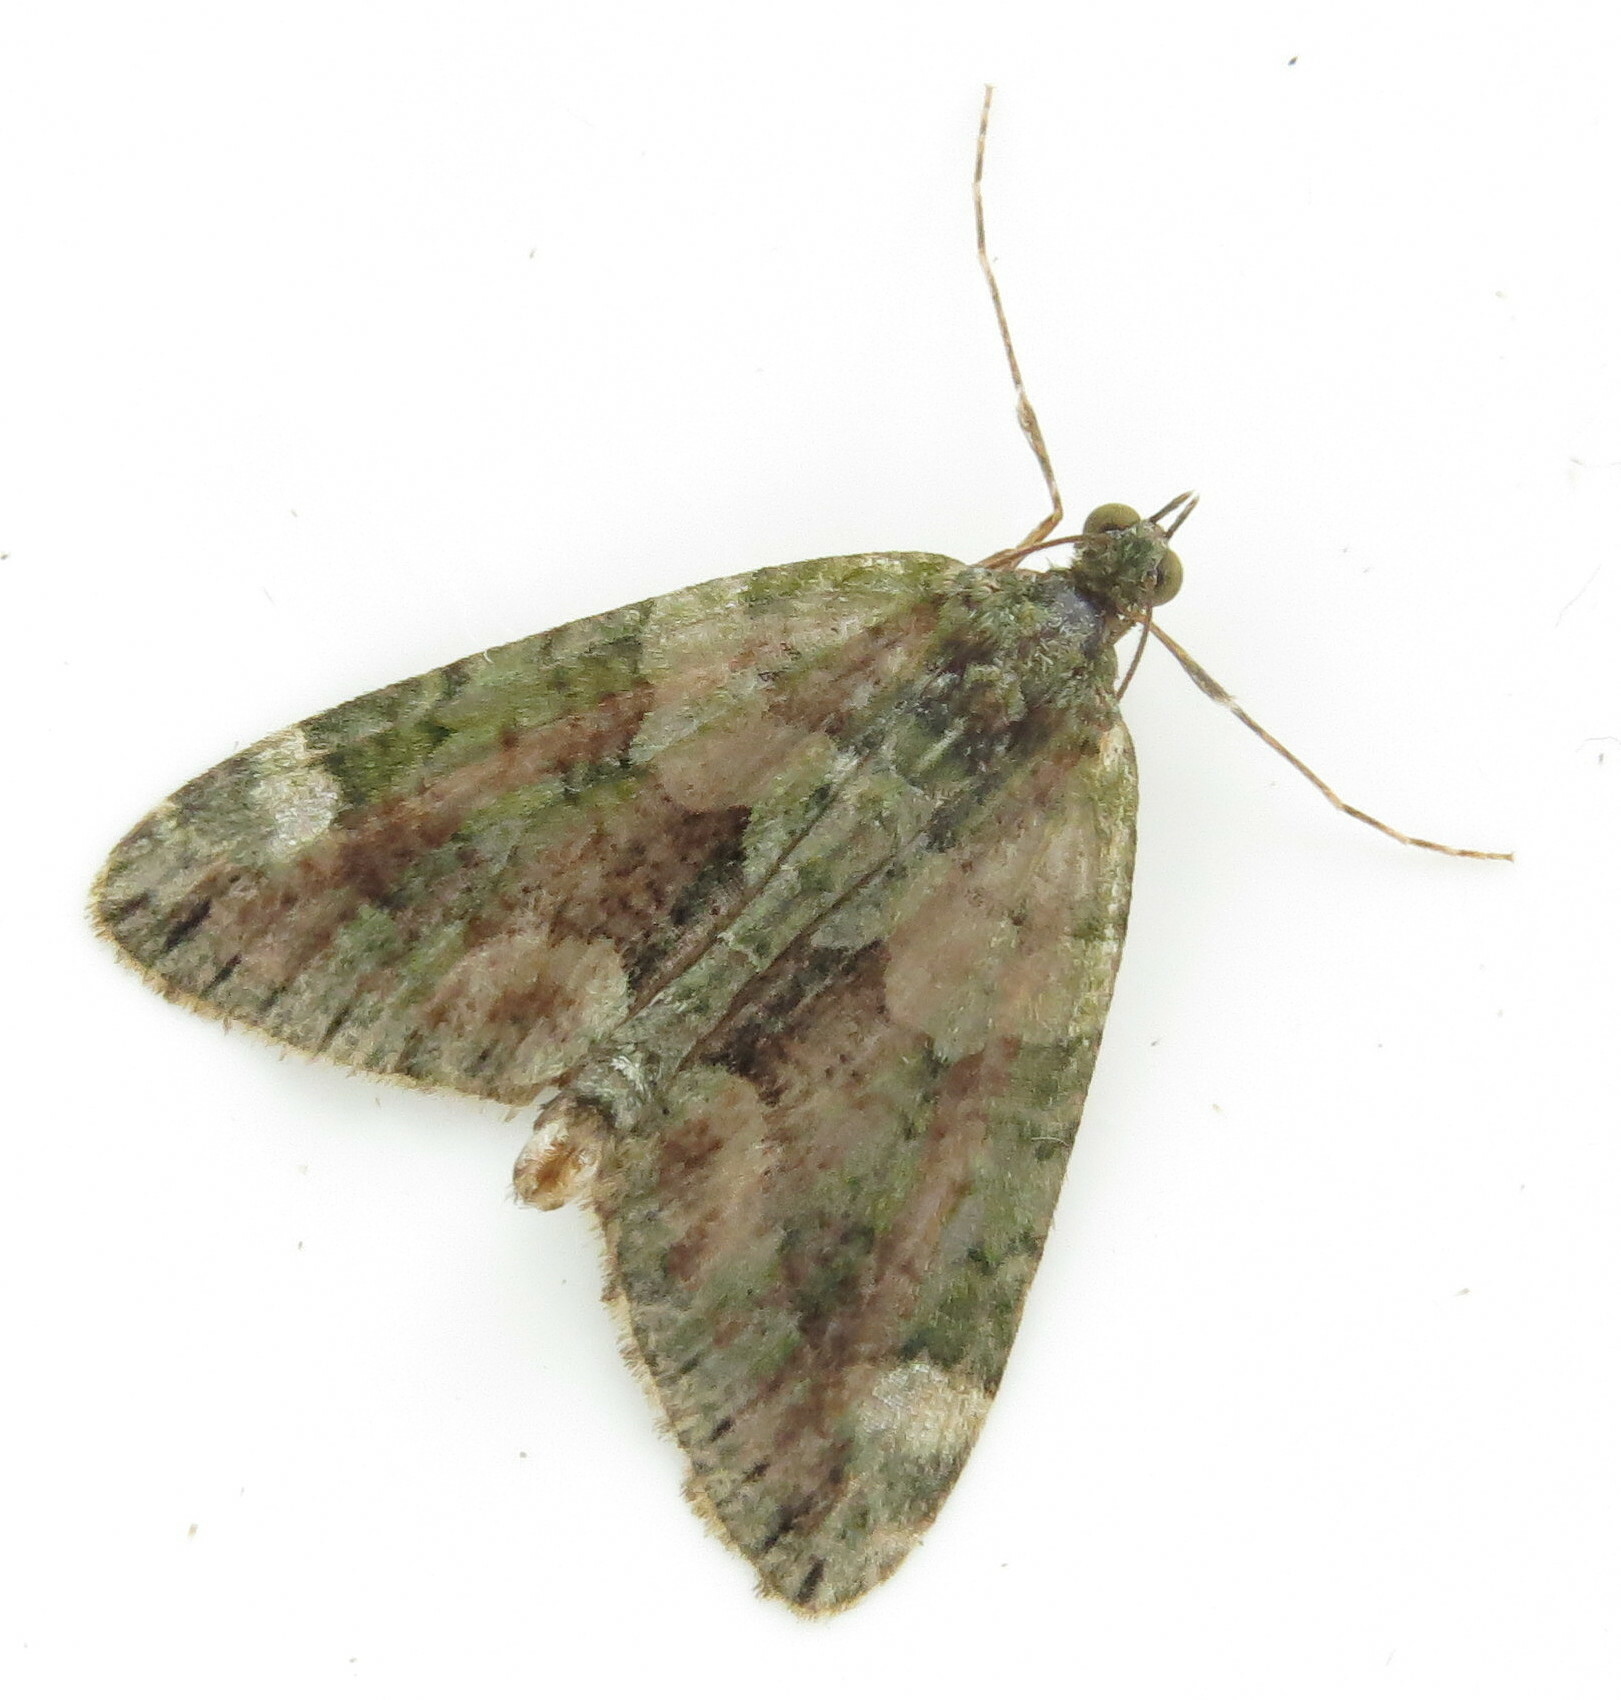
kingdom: Animalia
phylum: Arthropoda
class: Insecta
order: Lepidoptera
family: Geometridae
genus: Chloroclysta
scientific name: Chloroclysta siterata
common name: Red-green carpet
